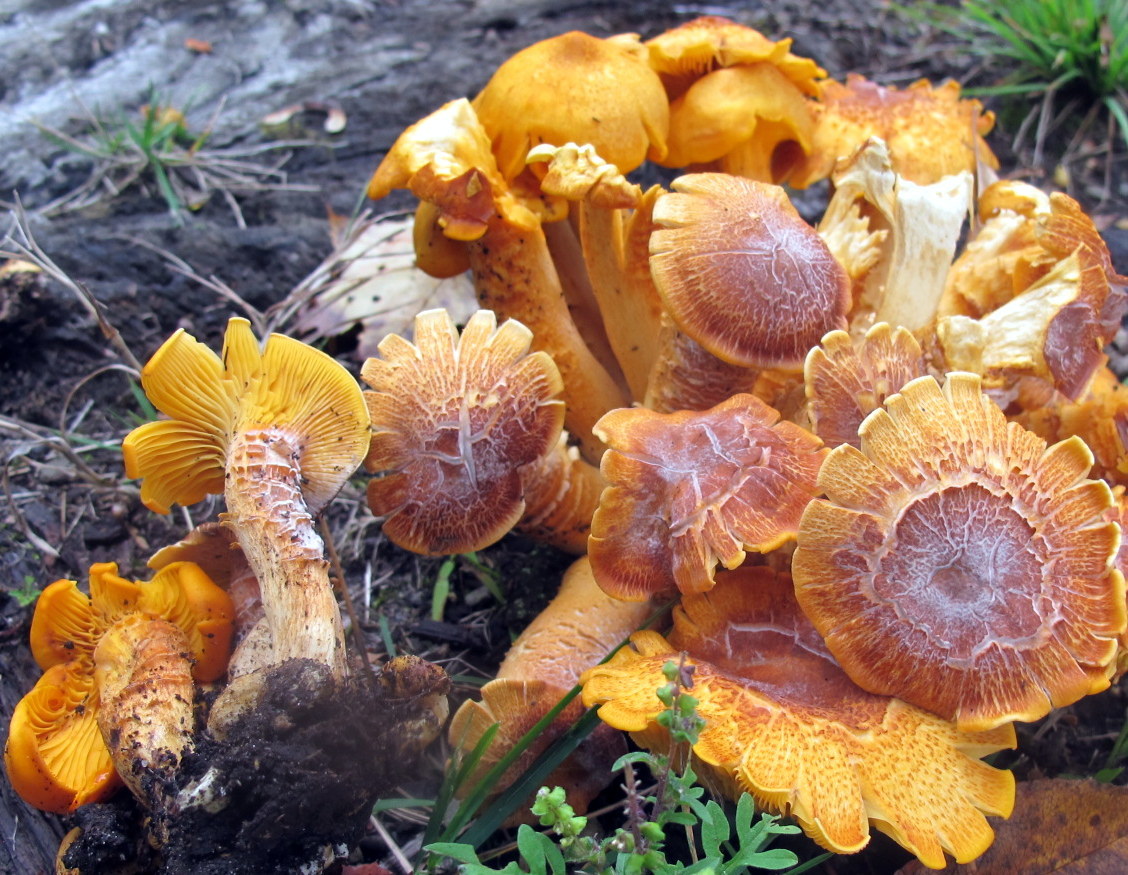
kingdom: Fungi
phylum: Basidiomycota
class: Agaricomycetes
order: Agaricales
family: Omphalotaceae
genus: Omphalotus
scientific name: Omphalotus illudens
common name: Jack o lantern
